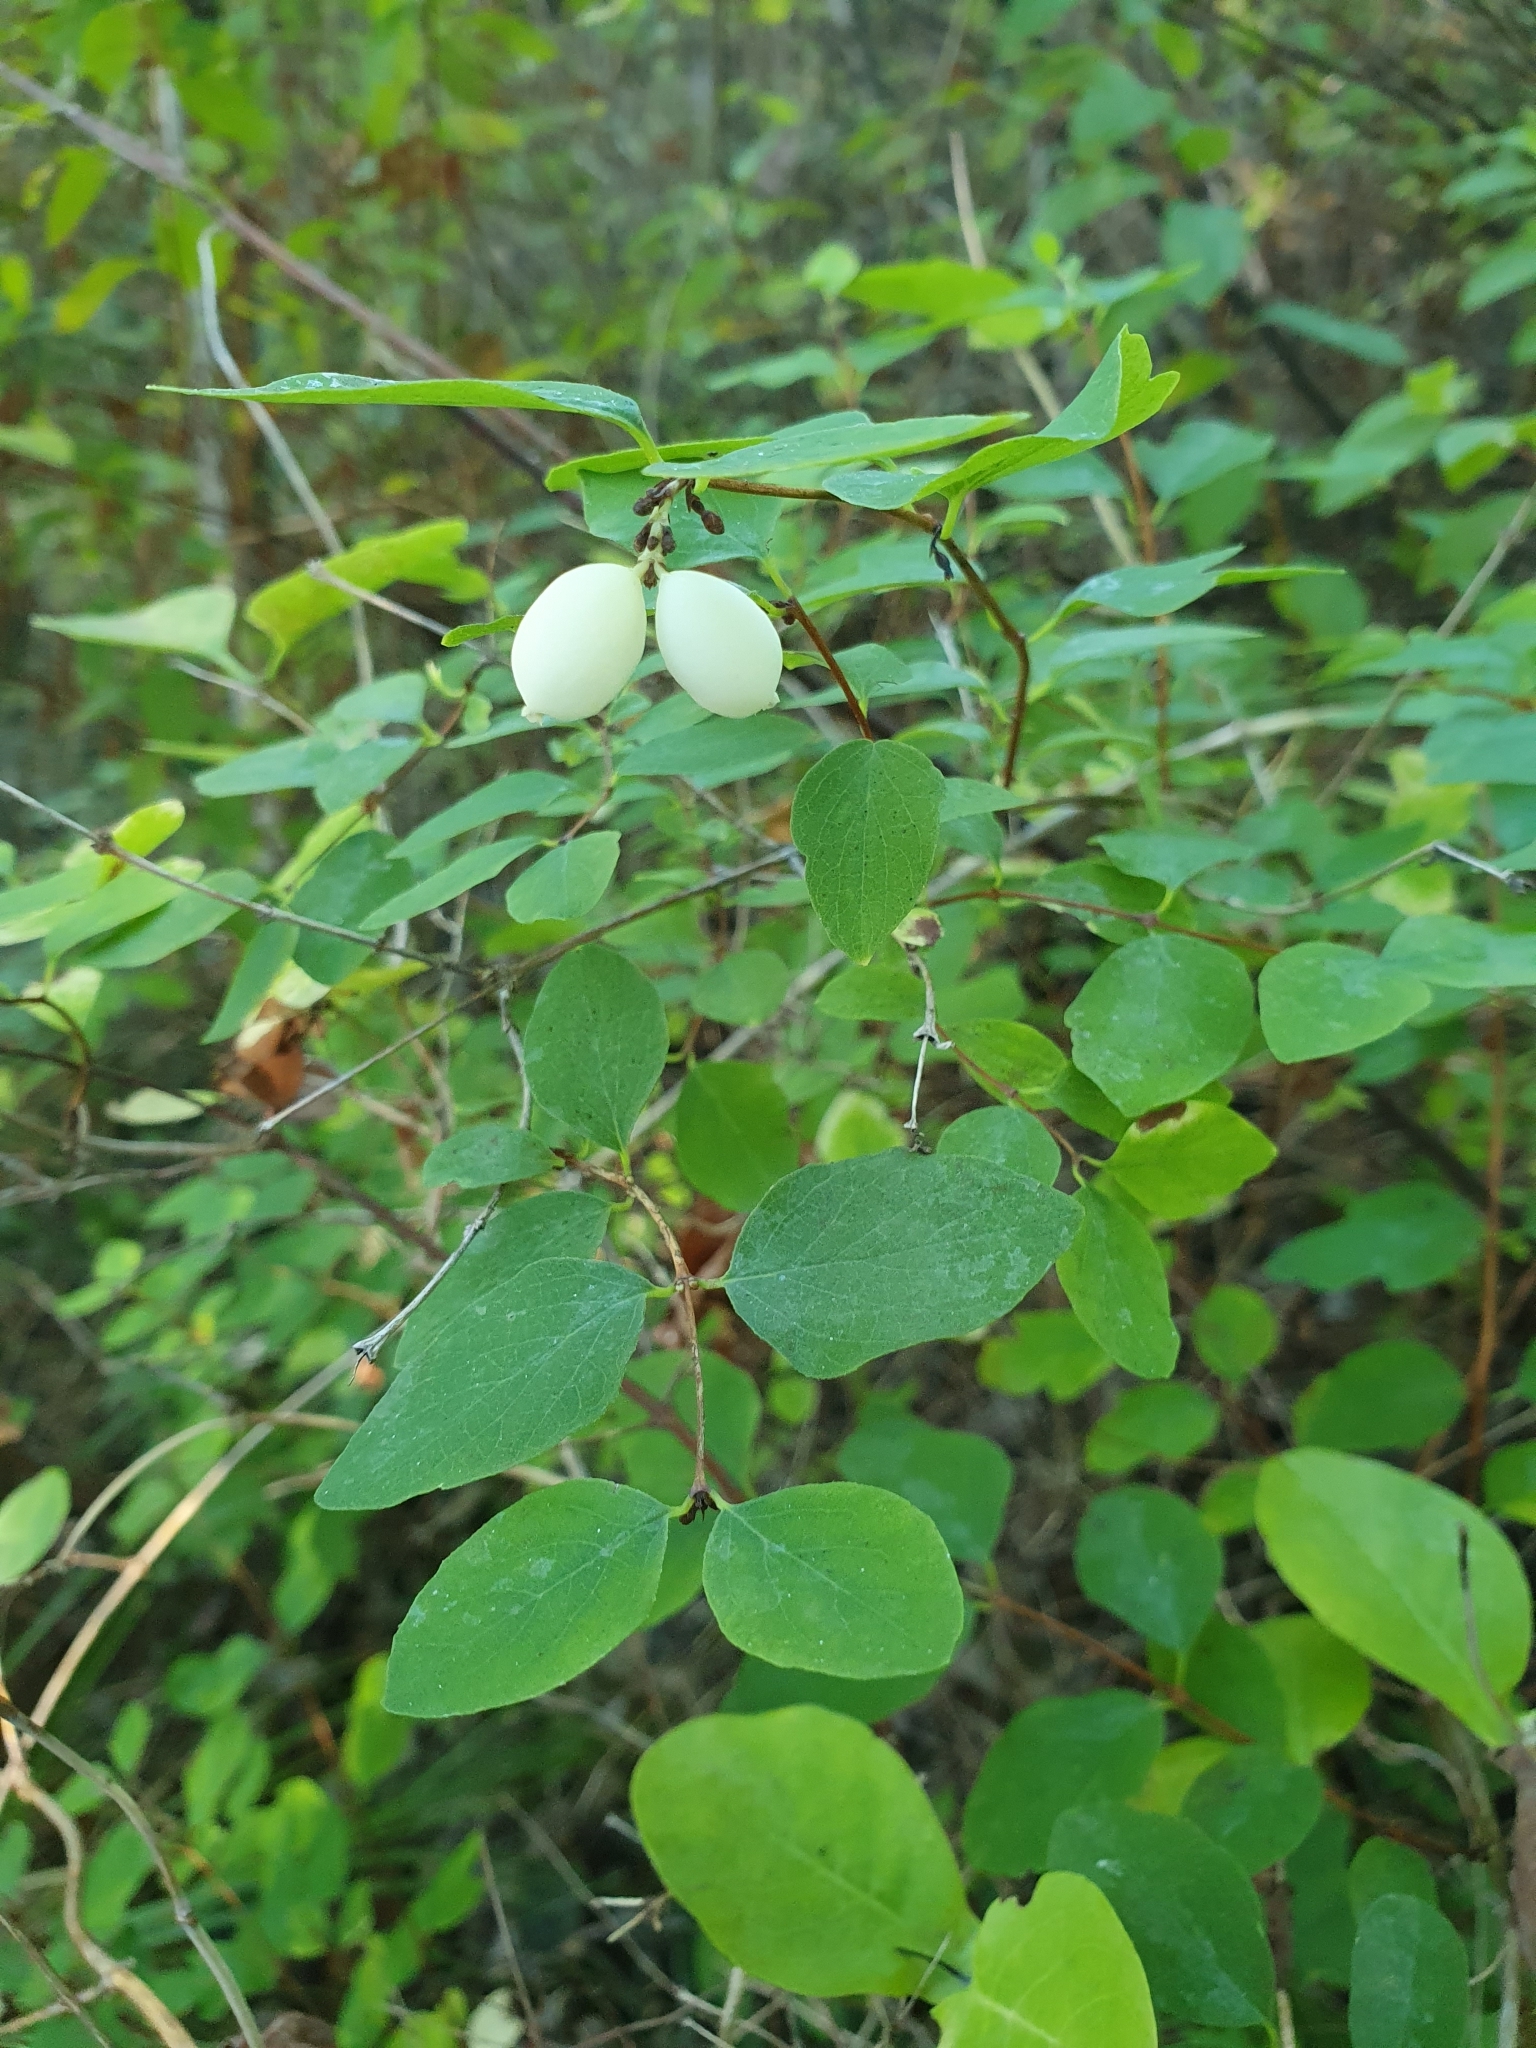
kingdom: Plantae
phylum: Tracheophyta
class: Magnoliopsida
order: Dipsacales
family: Caprifoliaceae
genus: Symphoricarpos
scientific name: Symphoricarpos albus
